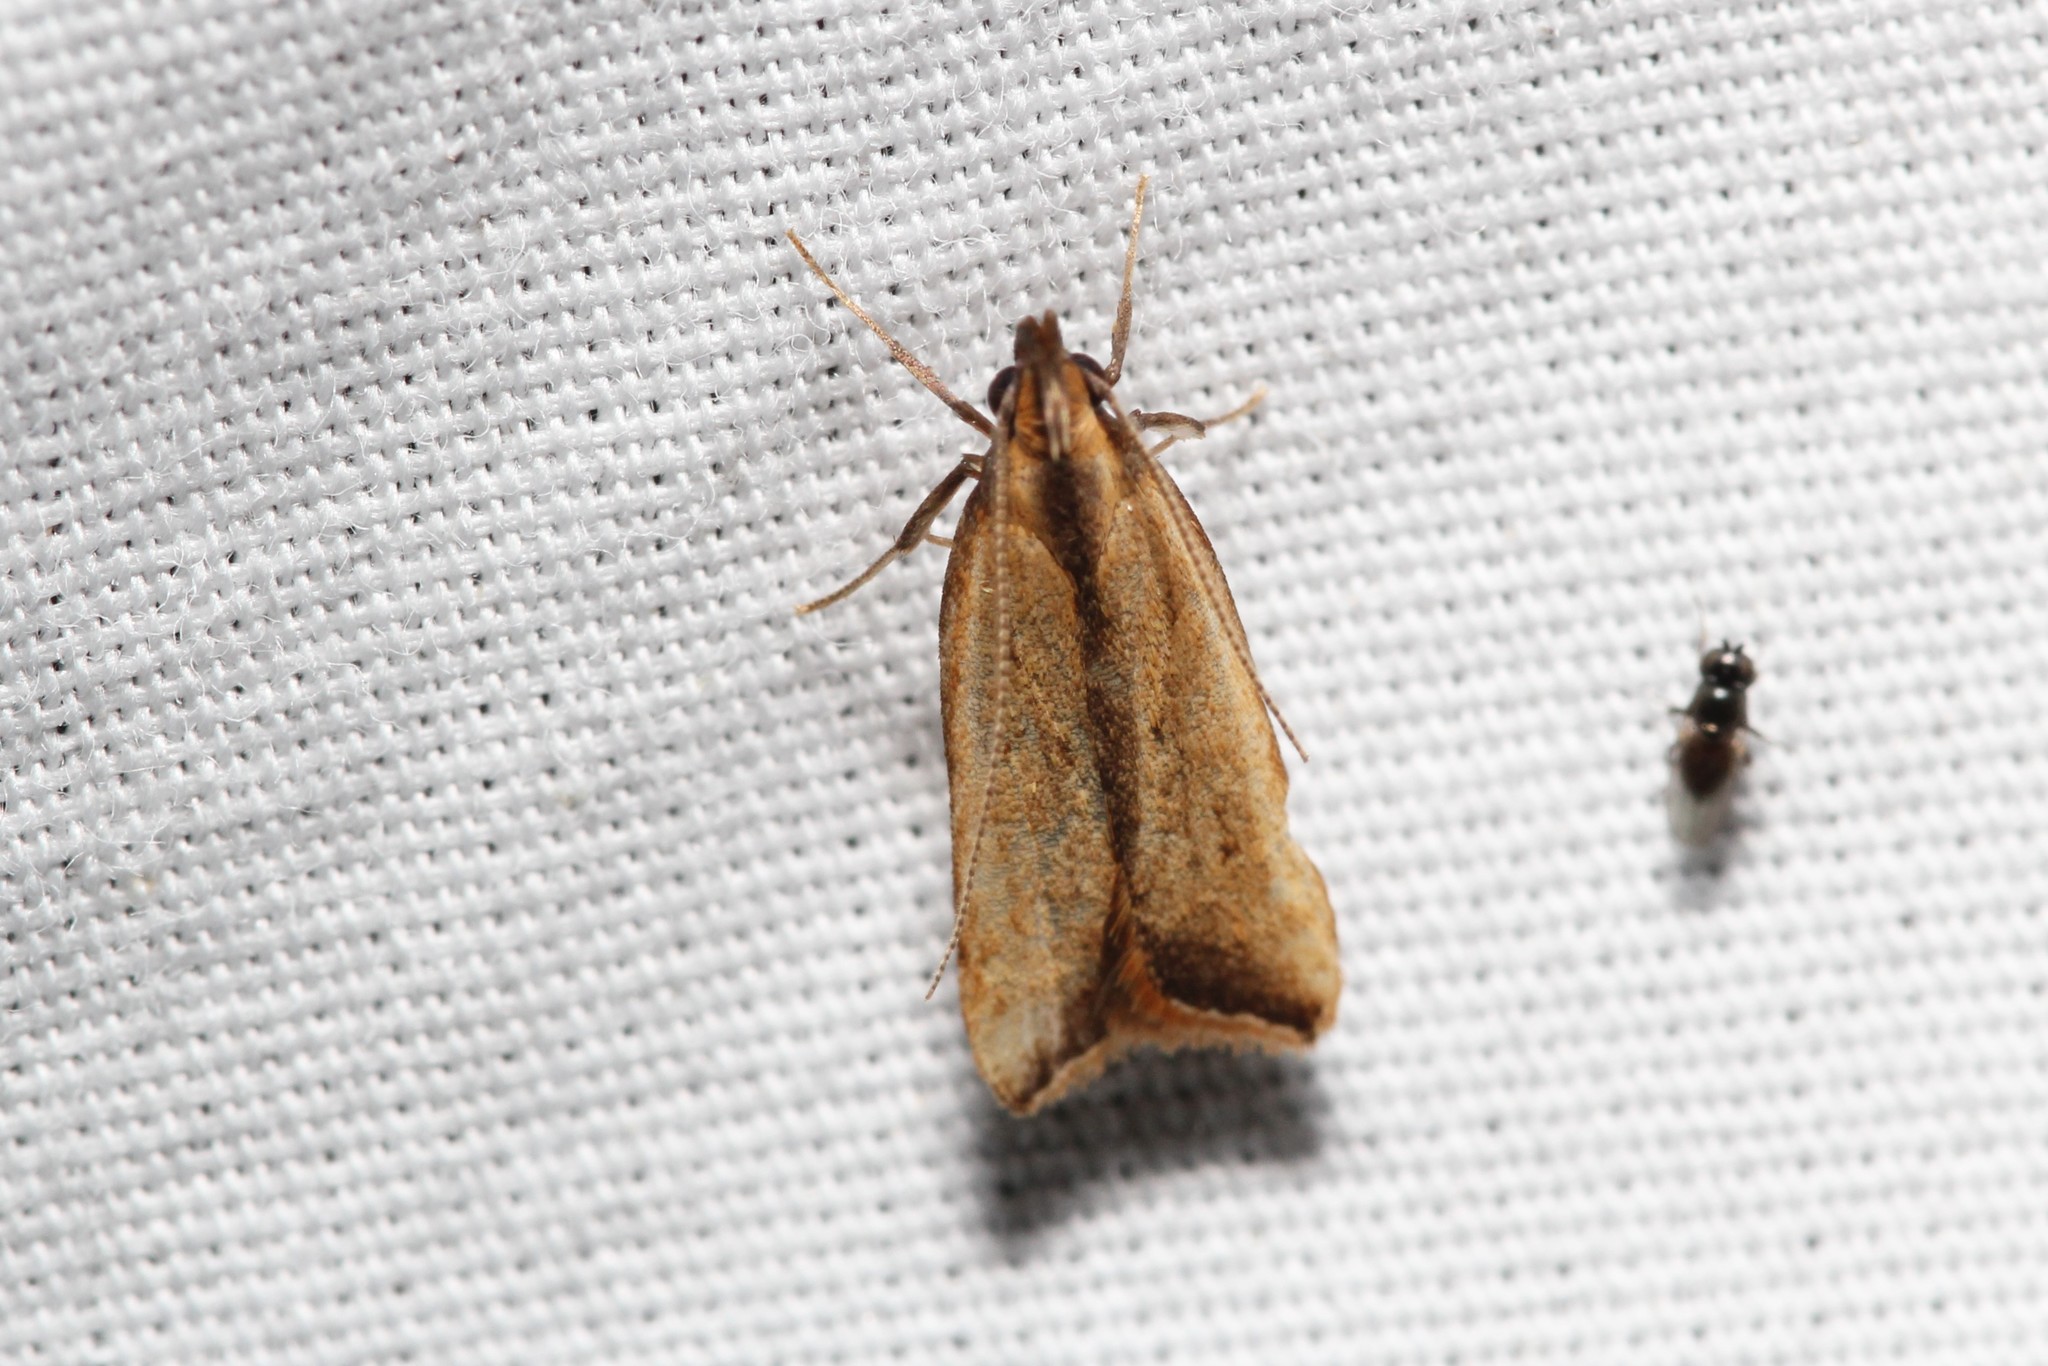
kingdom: Animalia
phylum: Arthropoda
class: Insecta
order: Lepidoptera
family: Gelechiidae
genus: Dichomeris
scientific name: Dichomeris heriguronis
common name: Black-edged dichomeris moth
